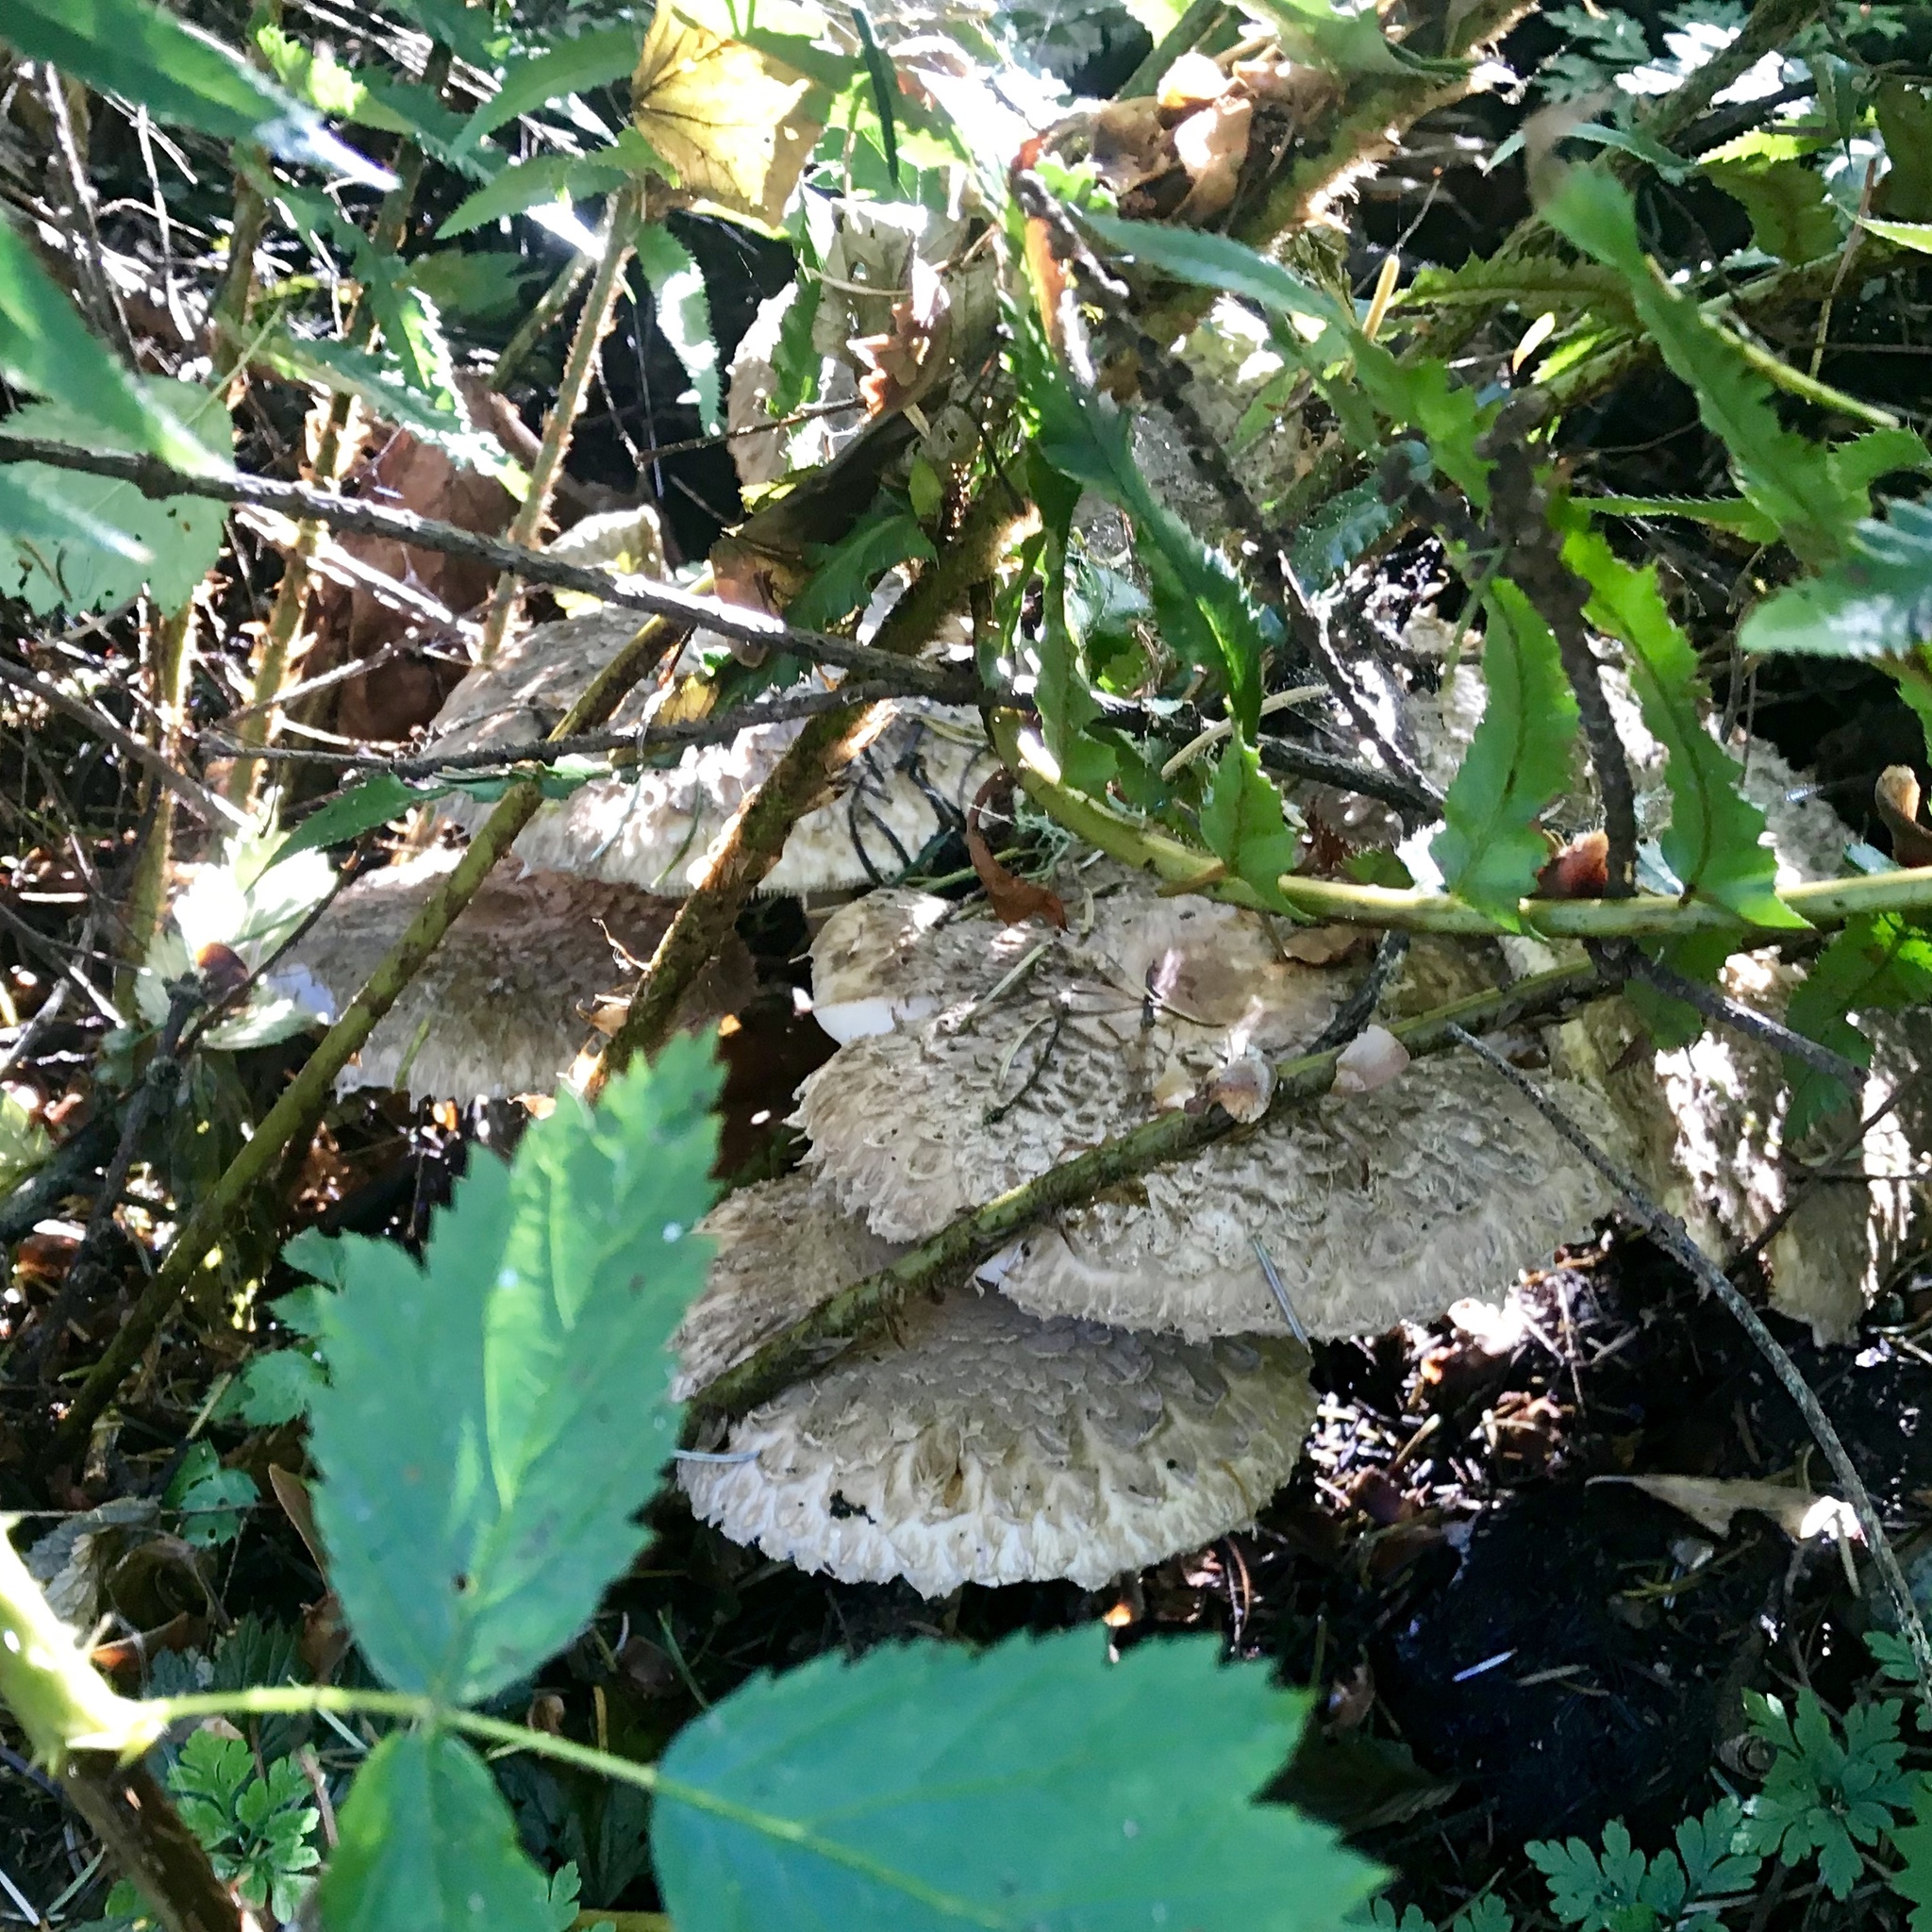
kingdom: Fungi
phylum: Basidiomycota
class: Agaricomycetes
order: Agaricales
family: Agaricaceae
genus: Chlorophyllum
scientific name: Chlorophyllum olivieri
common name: Conifer parasol
